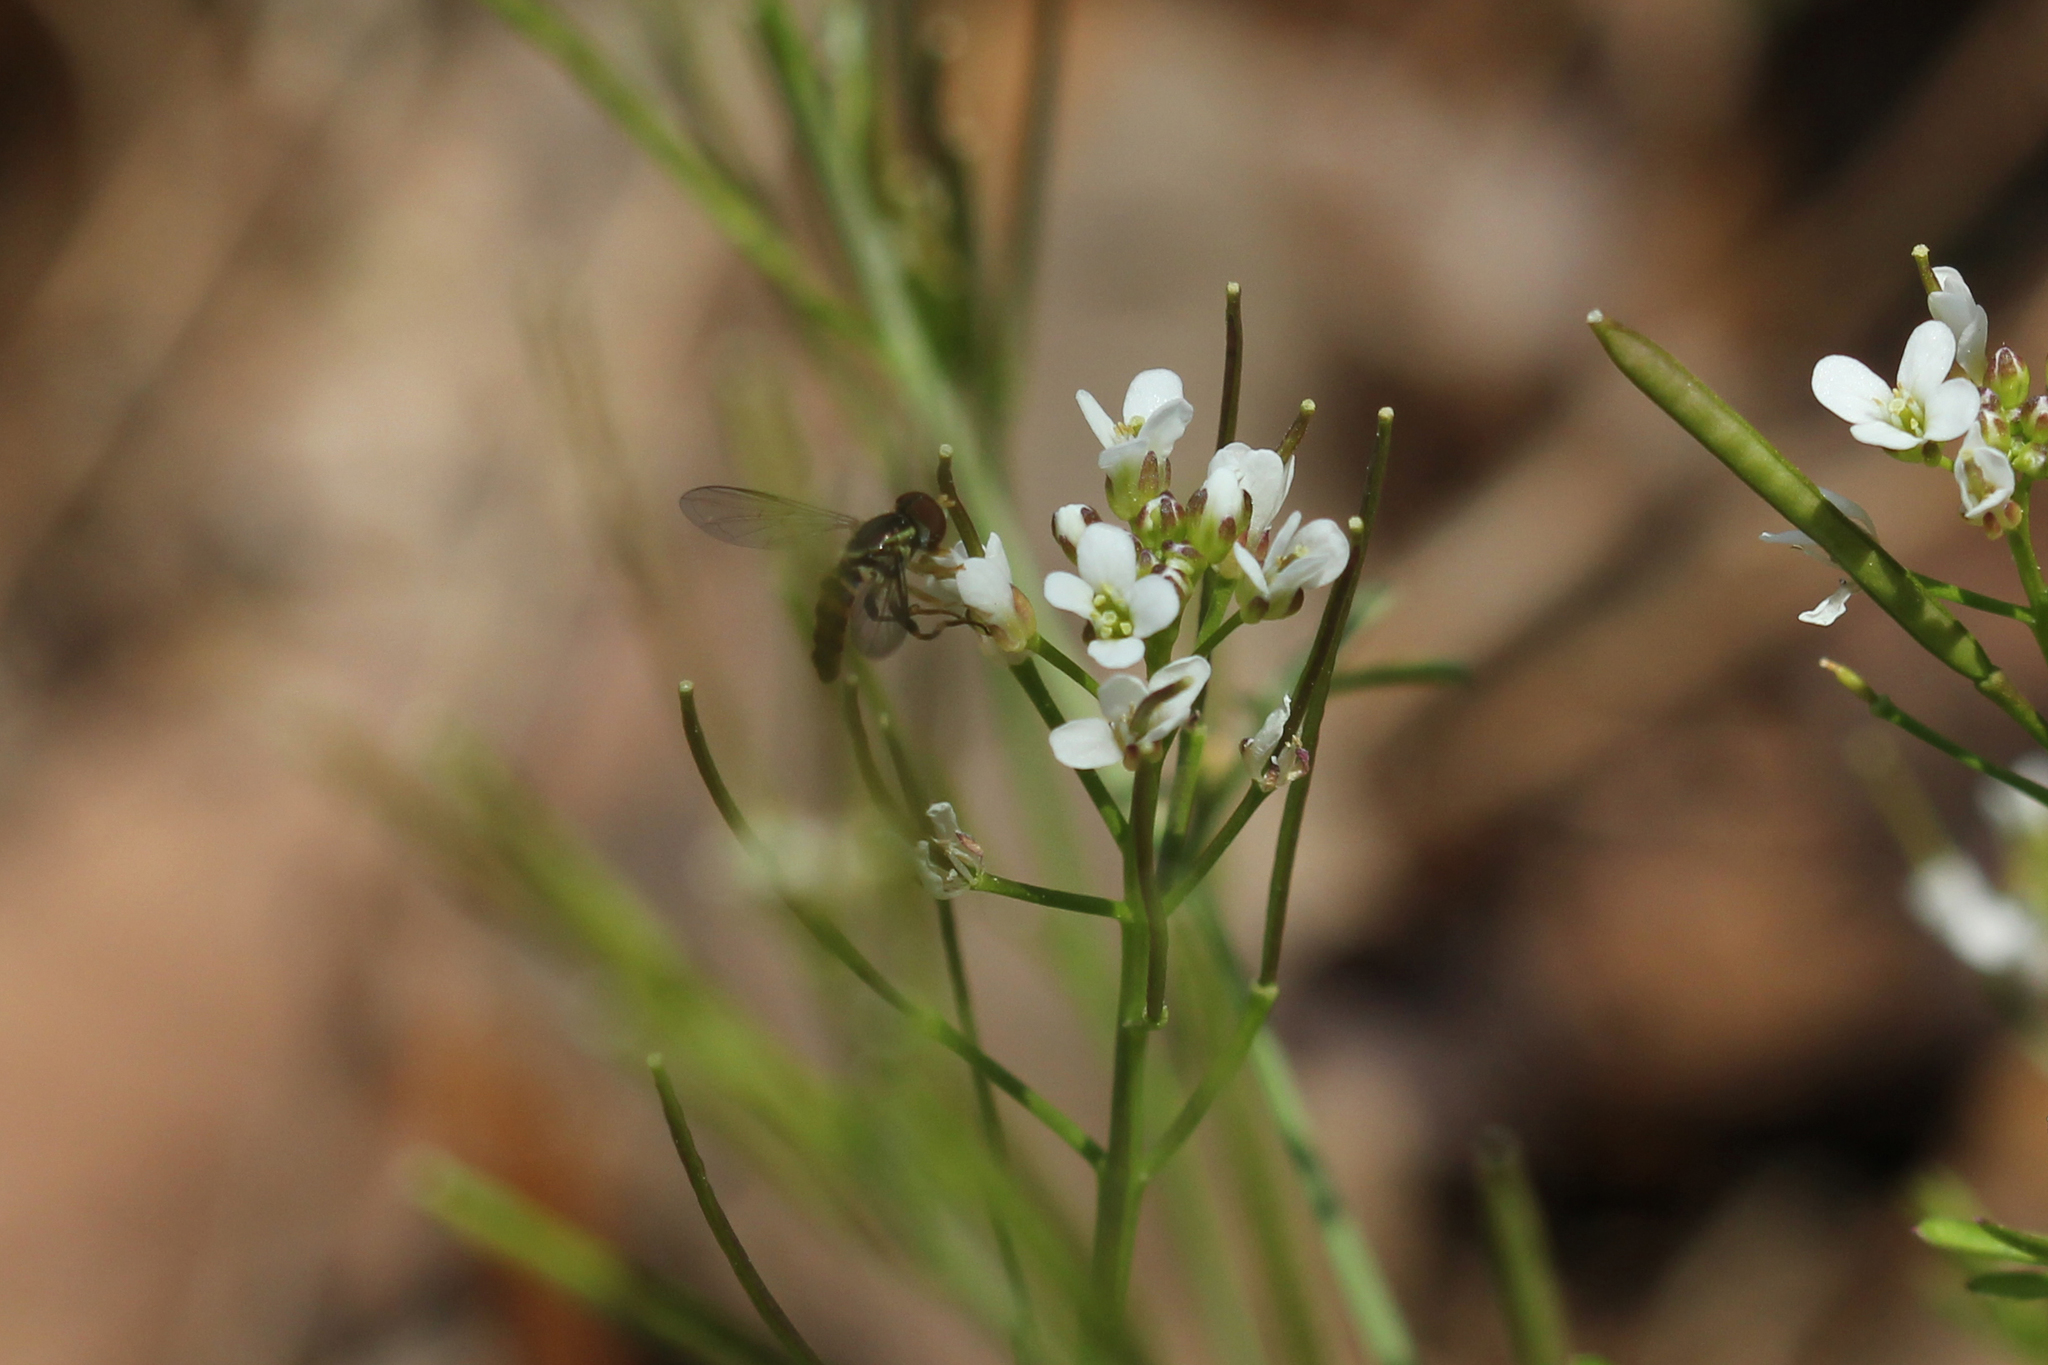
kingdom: Animalia
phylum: Arthropoda
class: Insecta
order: Diptera
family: Syrphidae
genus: Toxomerus
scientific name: Toxomerus geminatus
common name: Eastern calligrapher
